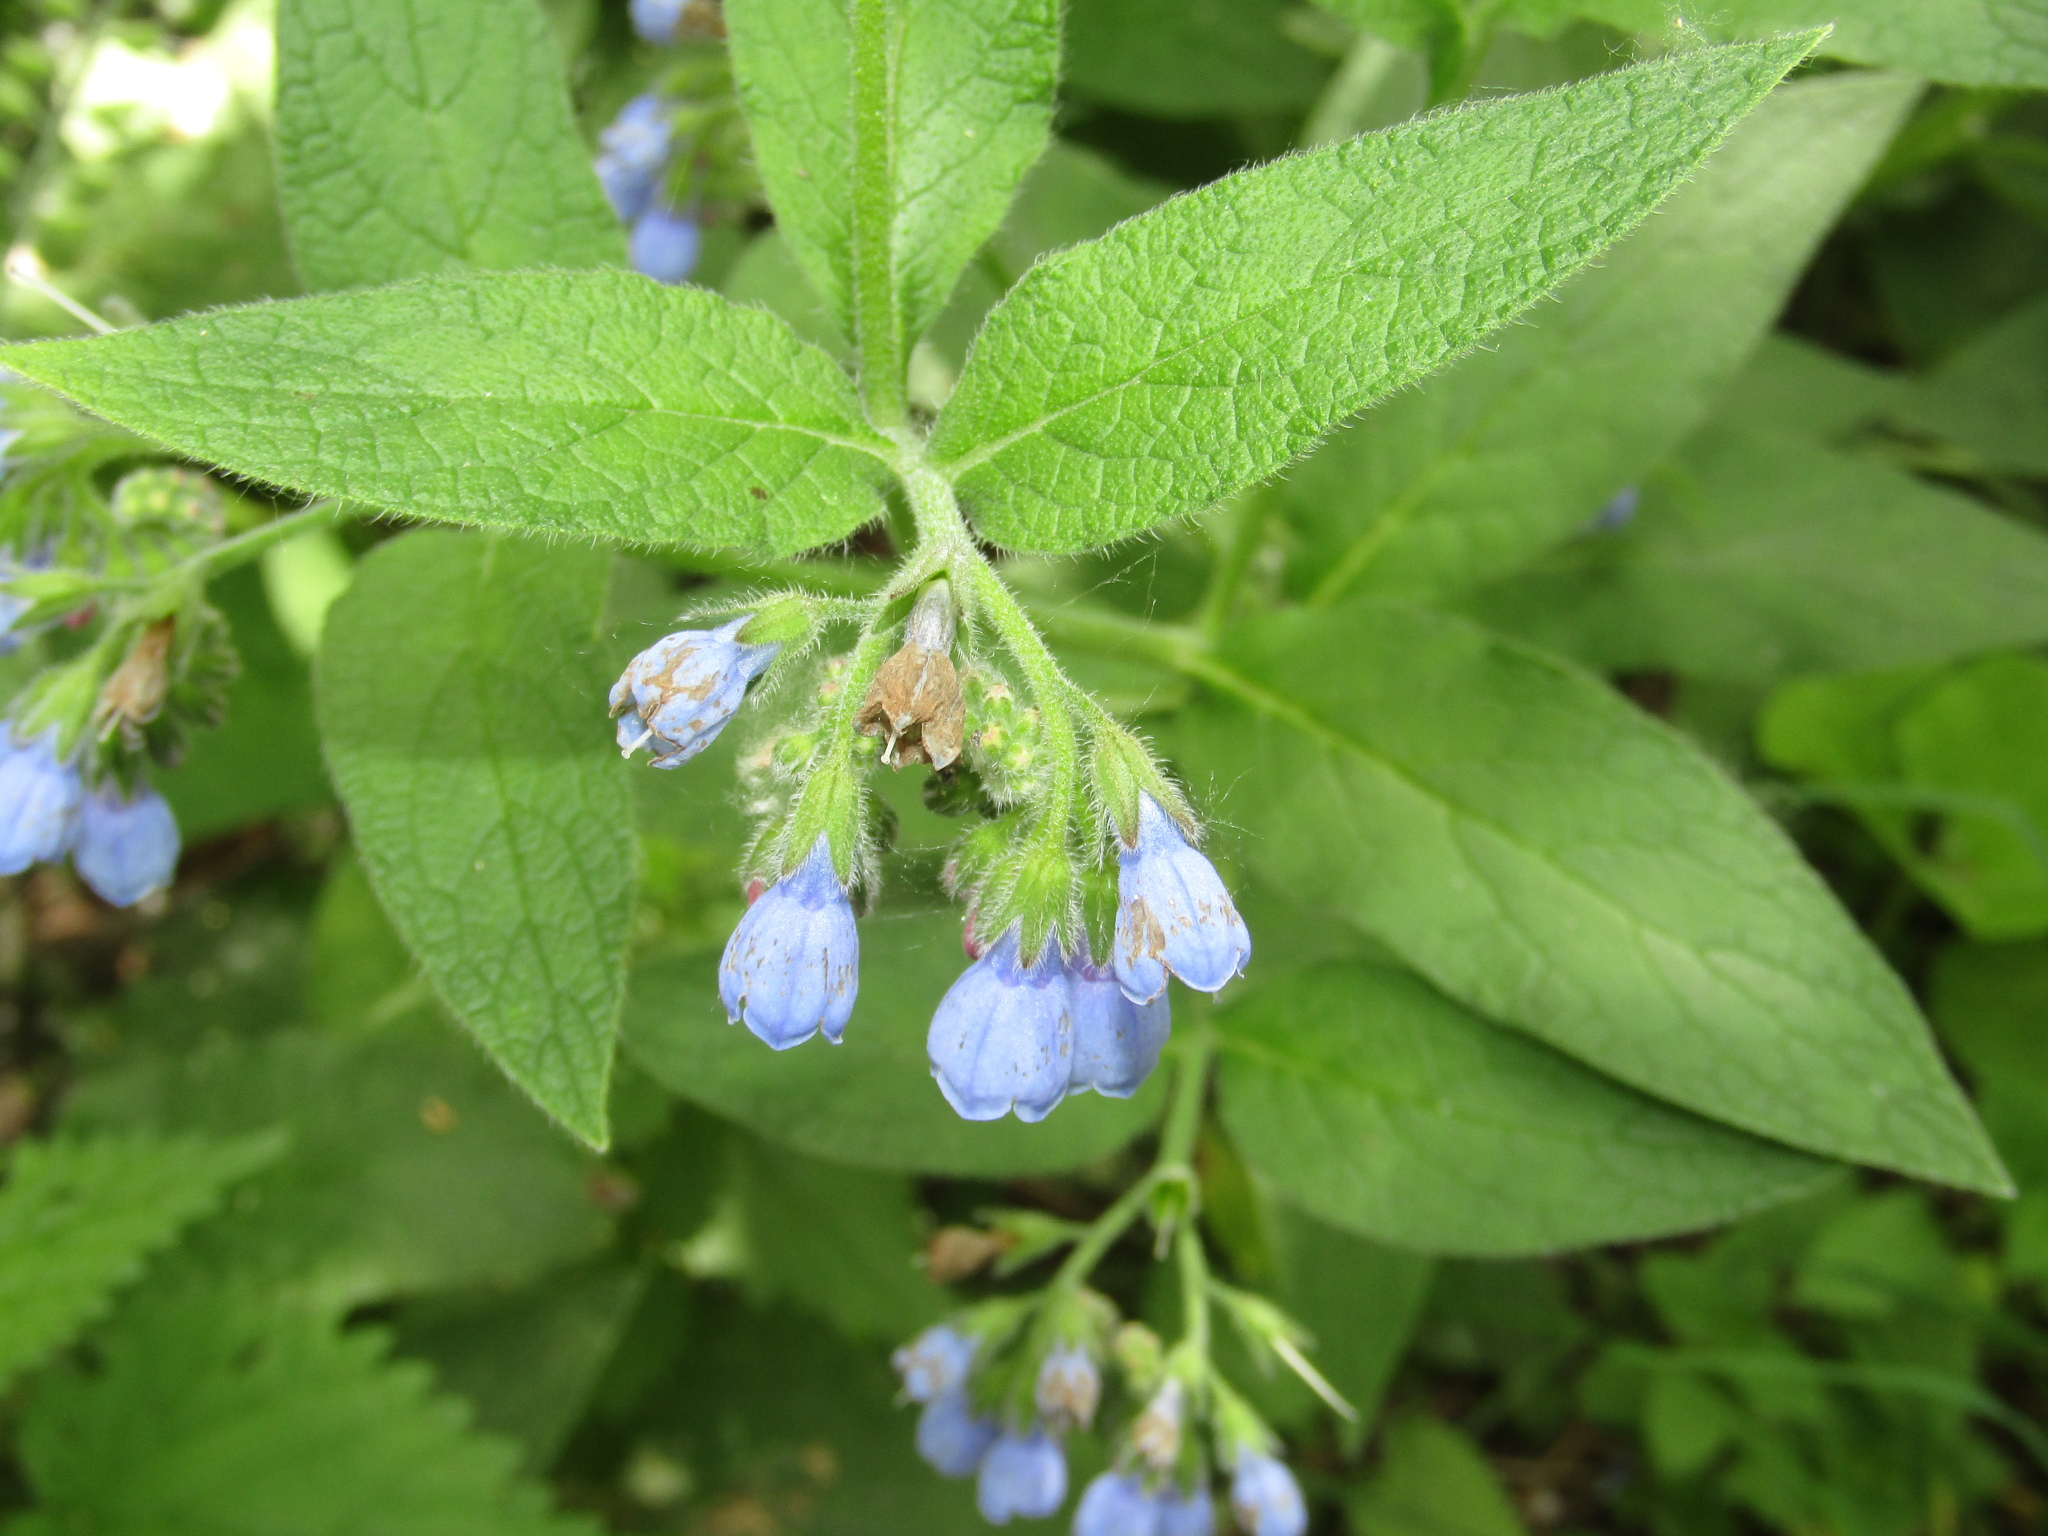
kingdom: Plantae
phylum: Tracheophyta
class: Magnoliopsida
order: Boraginales
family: Boraginaceae
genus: Symphytum
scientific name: Symphytum caucasicum
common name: Caucasian comfrey
